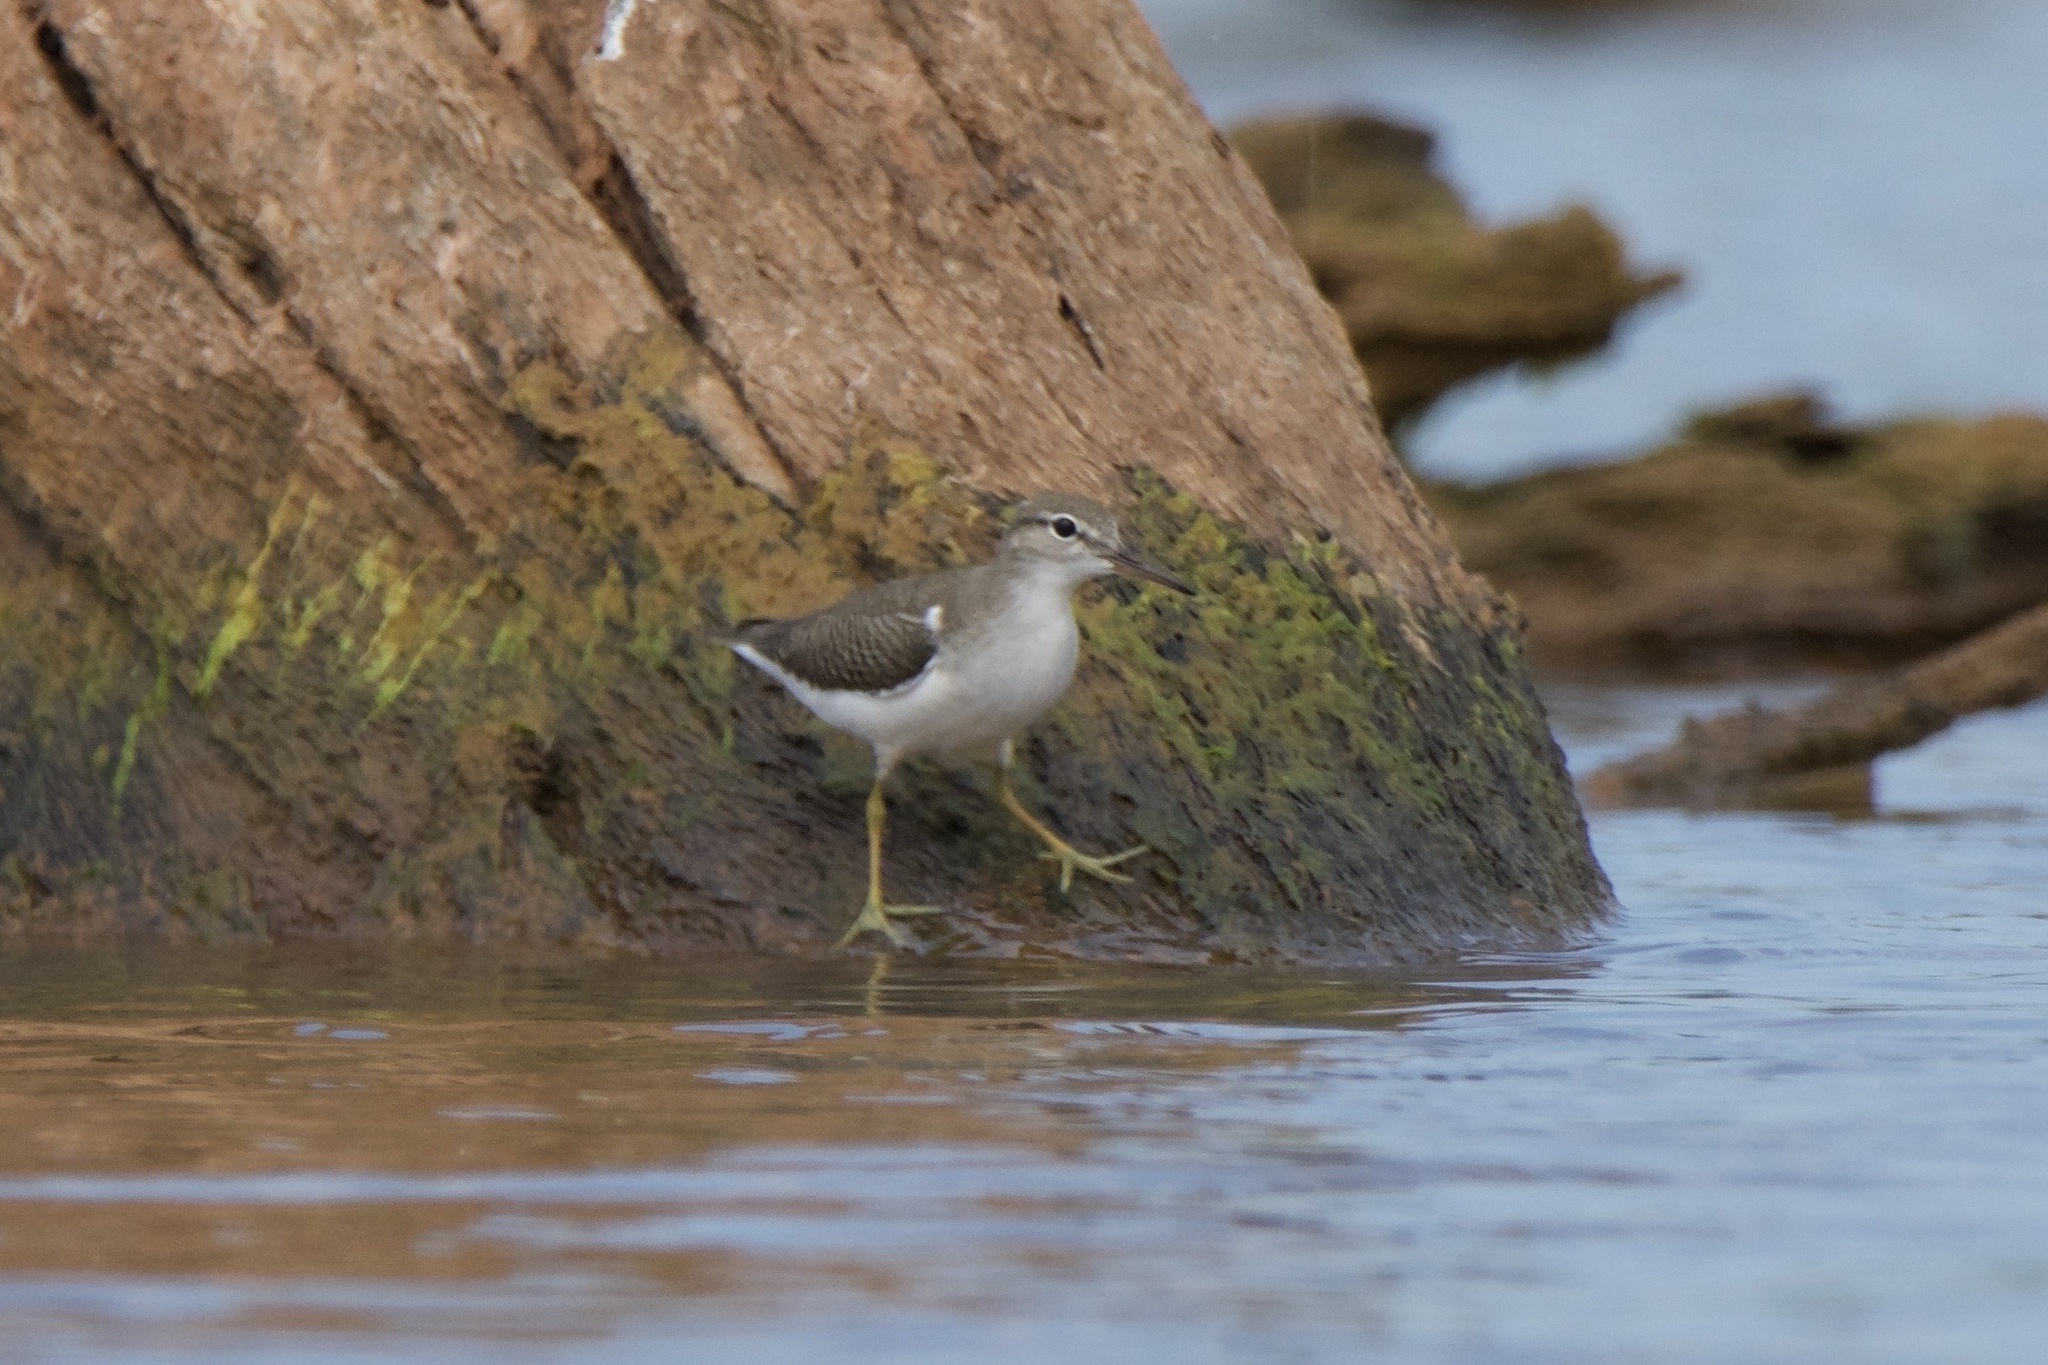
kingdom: Animalia
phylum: Chordata
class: Aves
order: Charadriiformes
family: Scolopacidae
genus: Actitis
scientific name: Actitis macularius
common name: Spotted sandpiper
